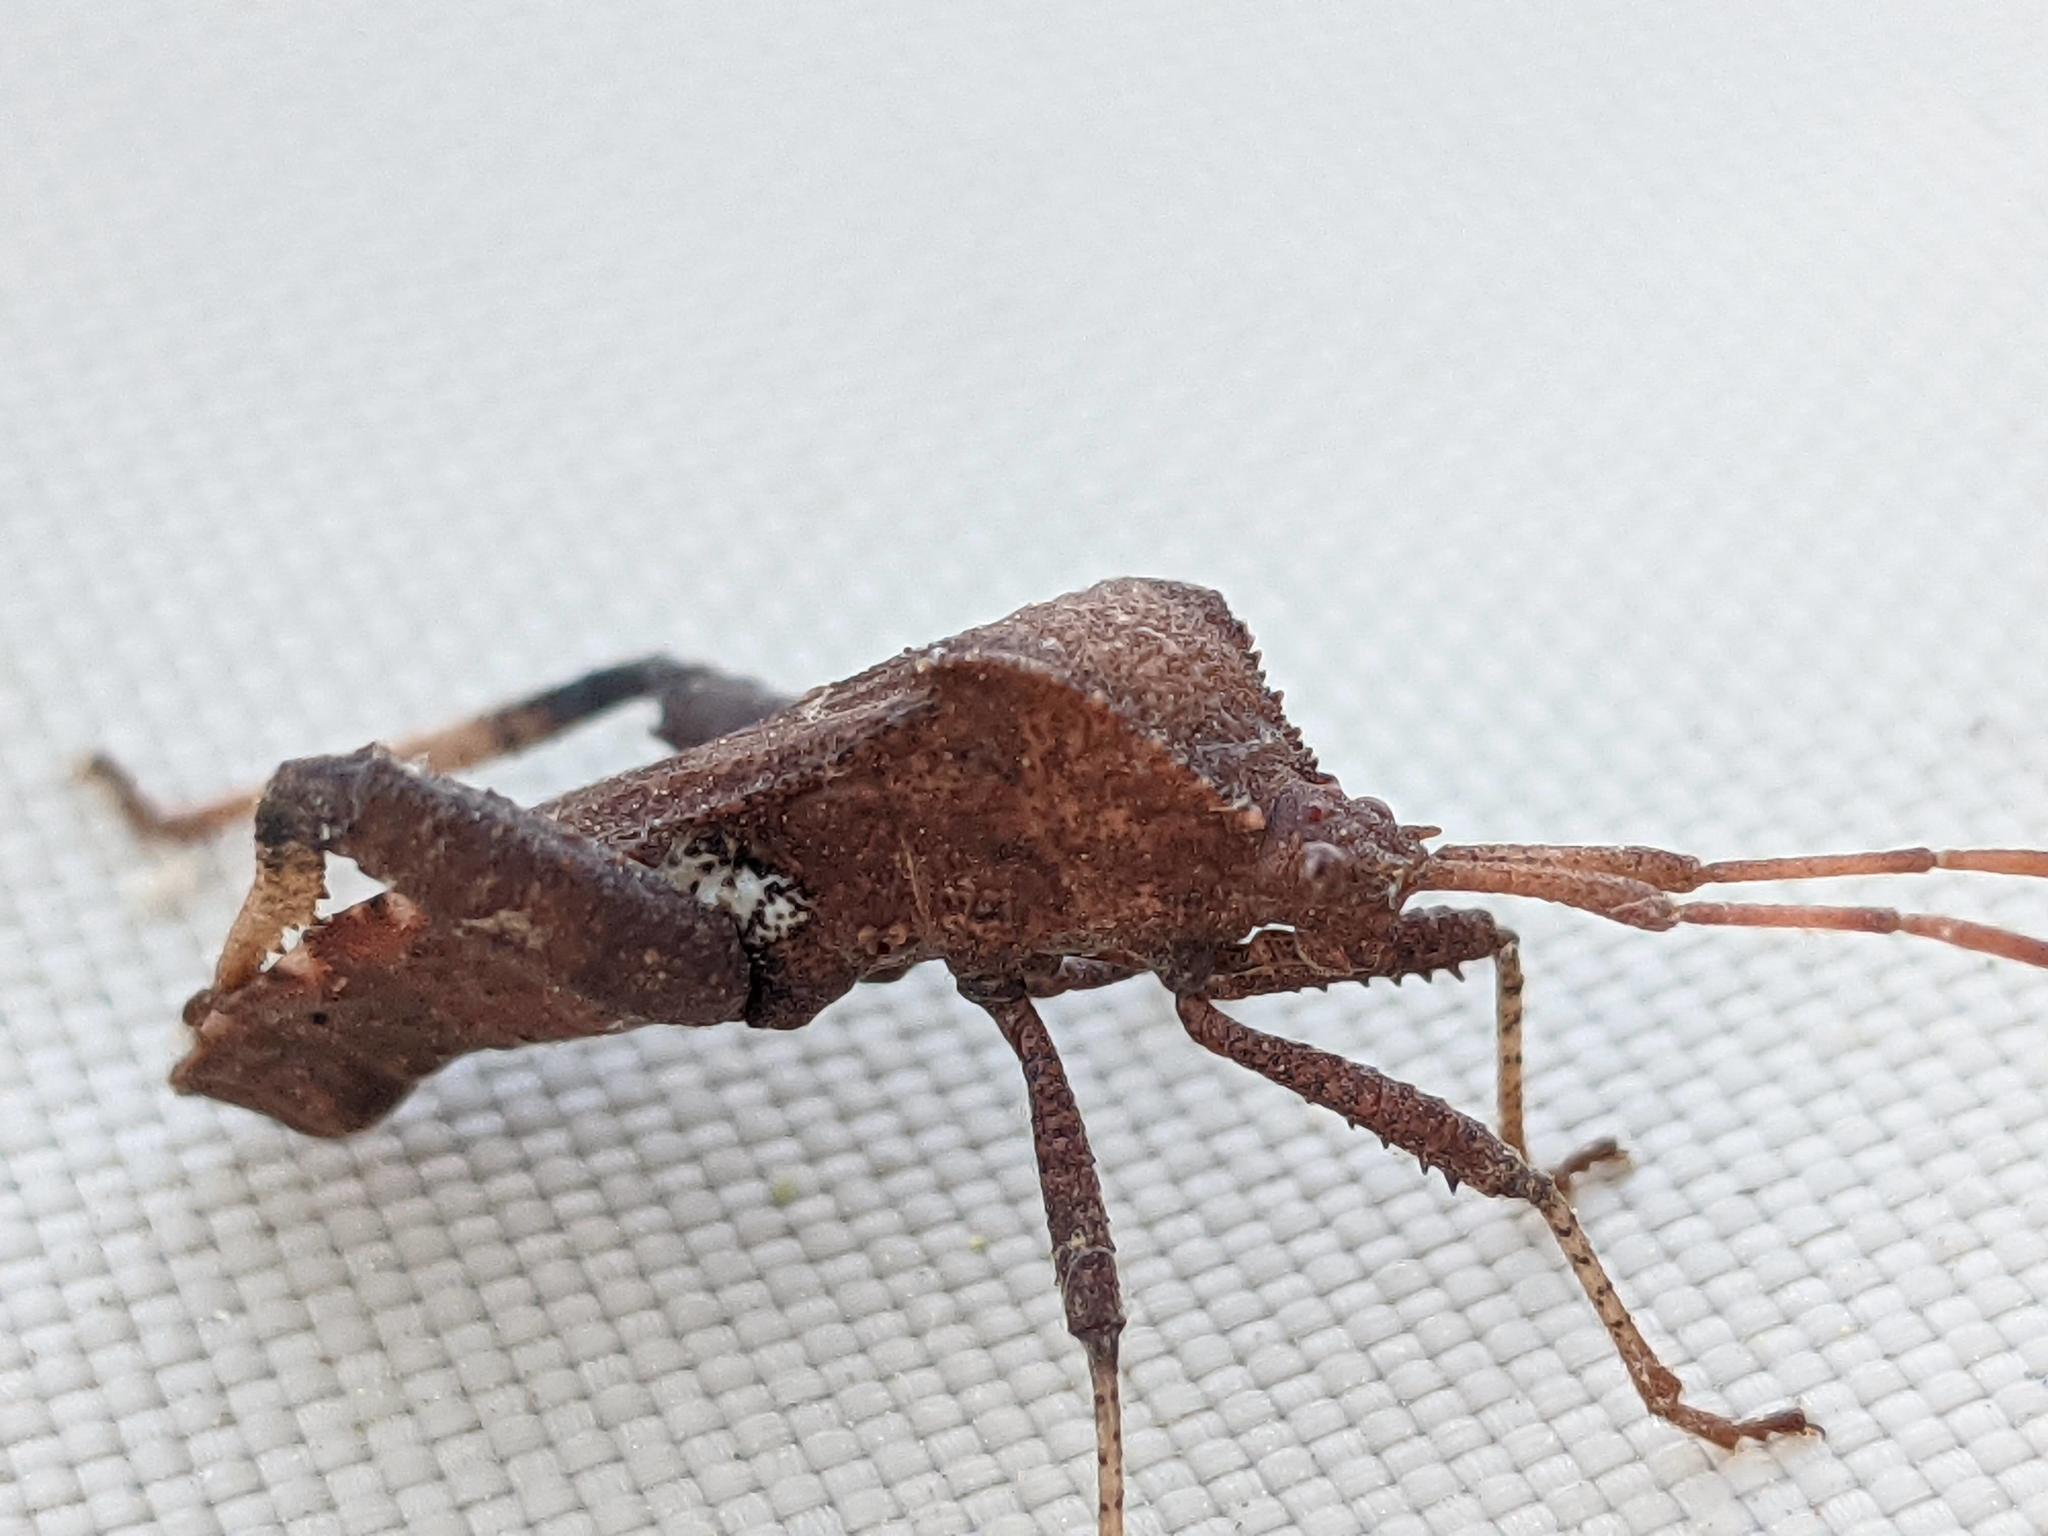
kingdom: Animalia
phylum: Arthropoda
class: Insecta
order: Hemiptera
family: Coreidae
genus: Euthochtha
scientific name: Euthochtha galeator
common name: Helmeted squash bug
